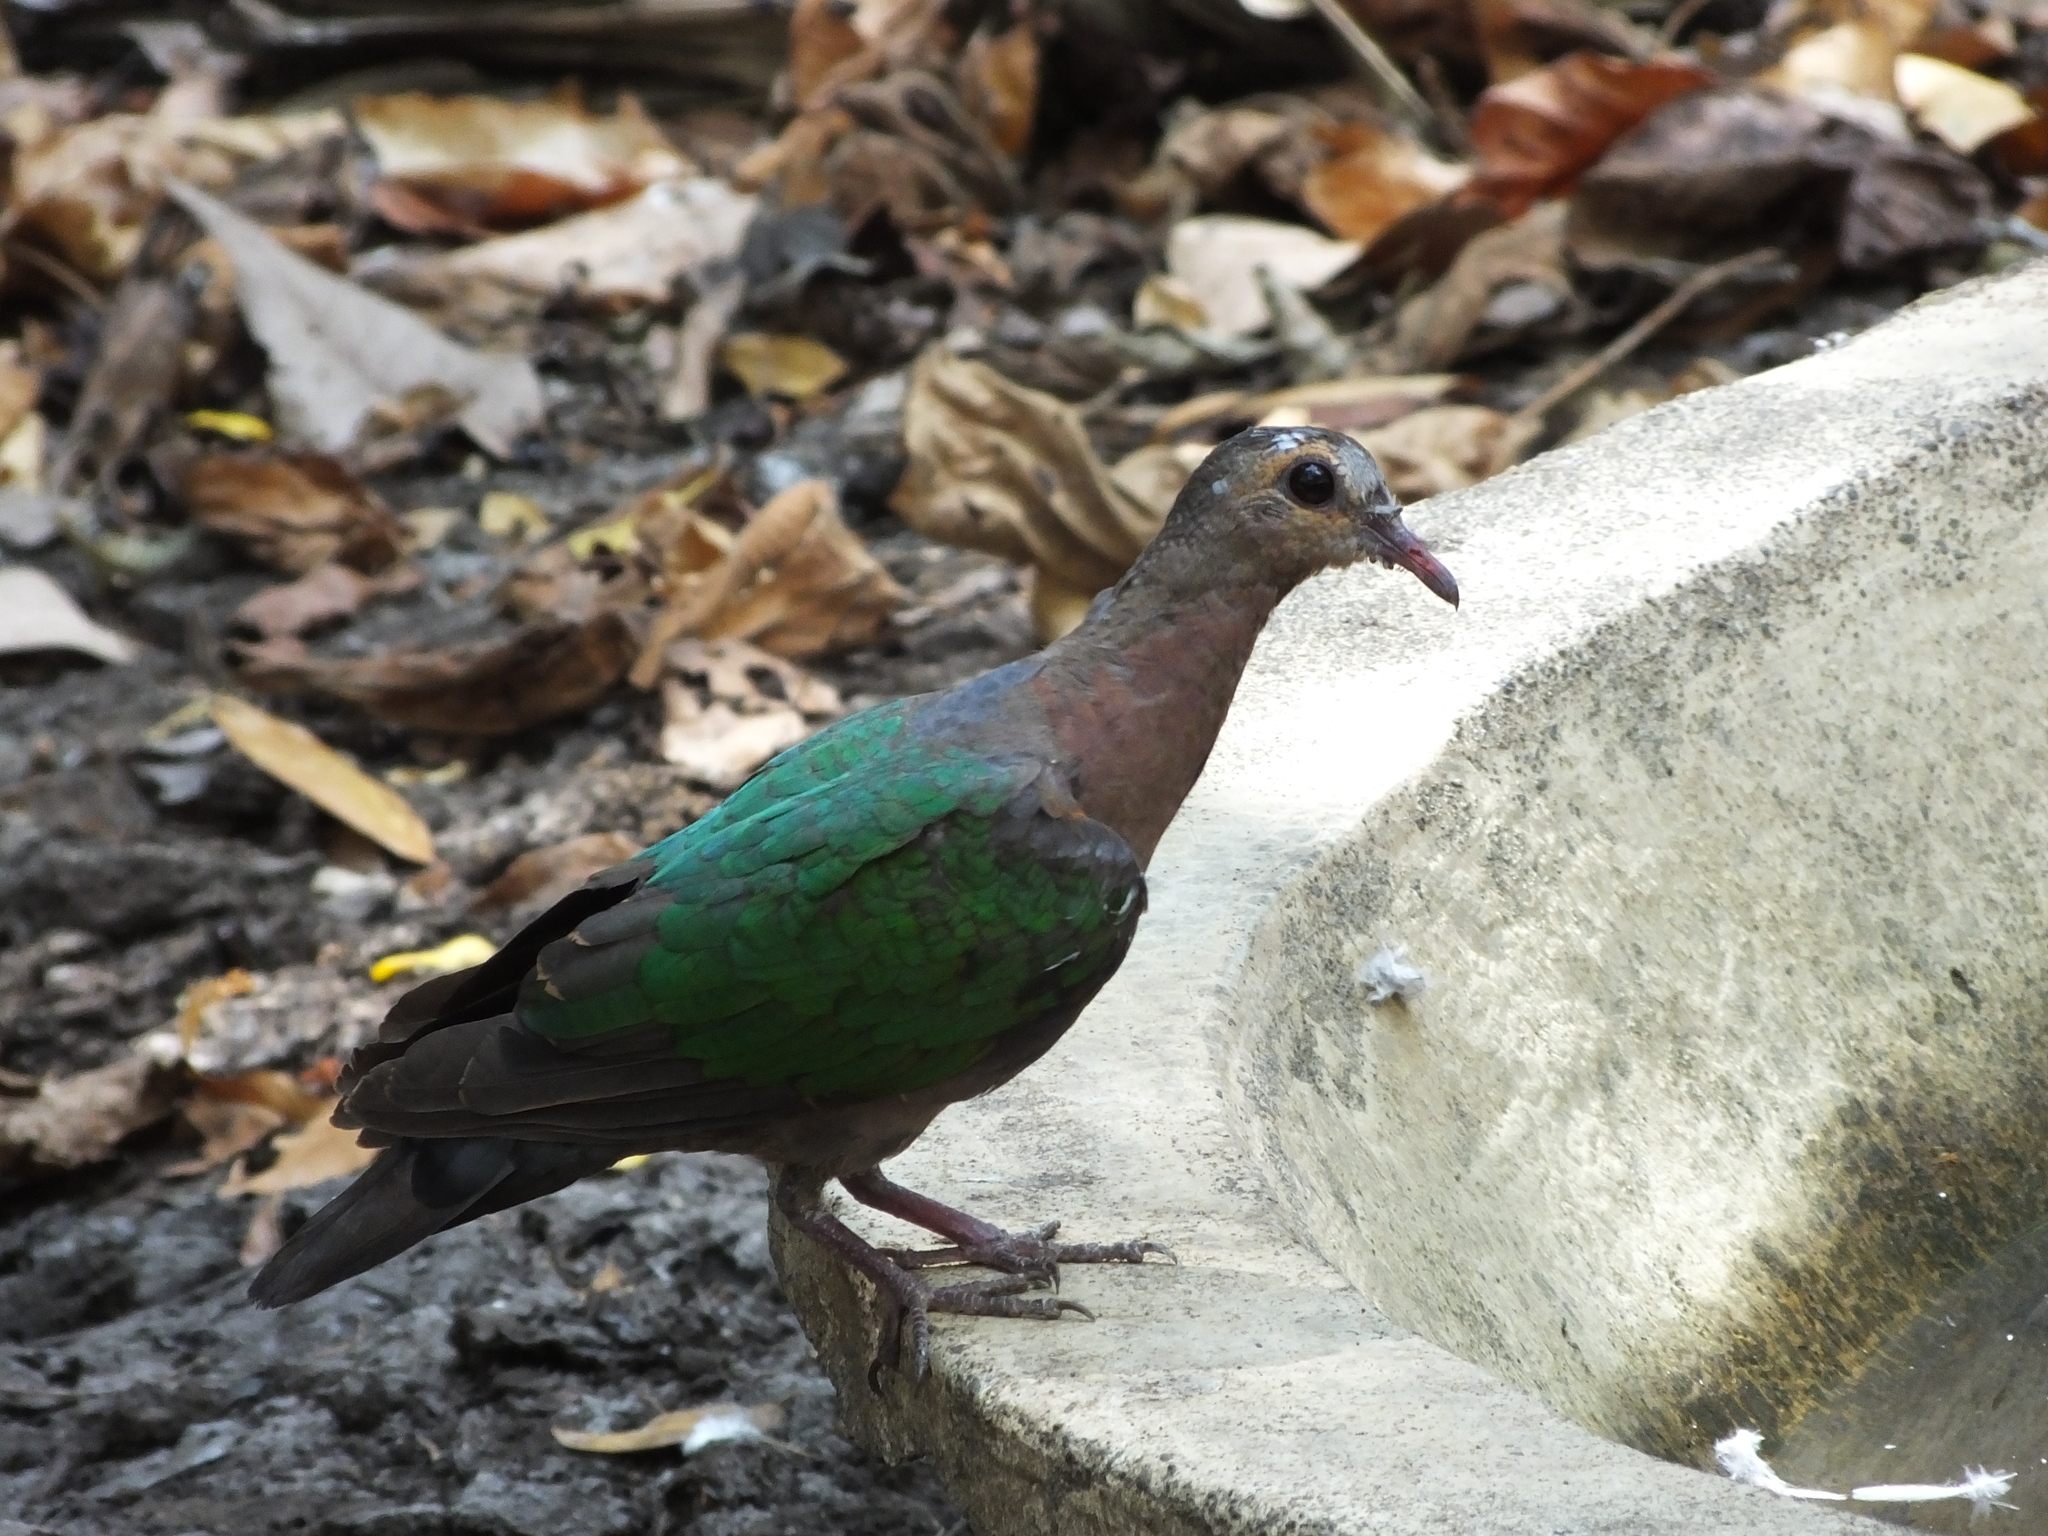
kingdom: Animalia
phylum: Chordata
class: Aves
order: Columbiformes
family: Columbidae
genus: Chalcophaps
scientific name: Chalcophaps indica
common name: Common emerald dove
